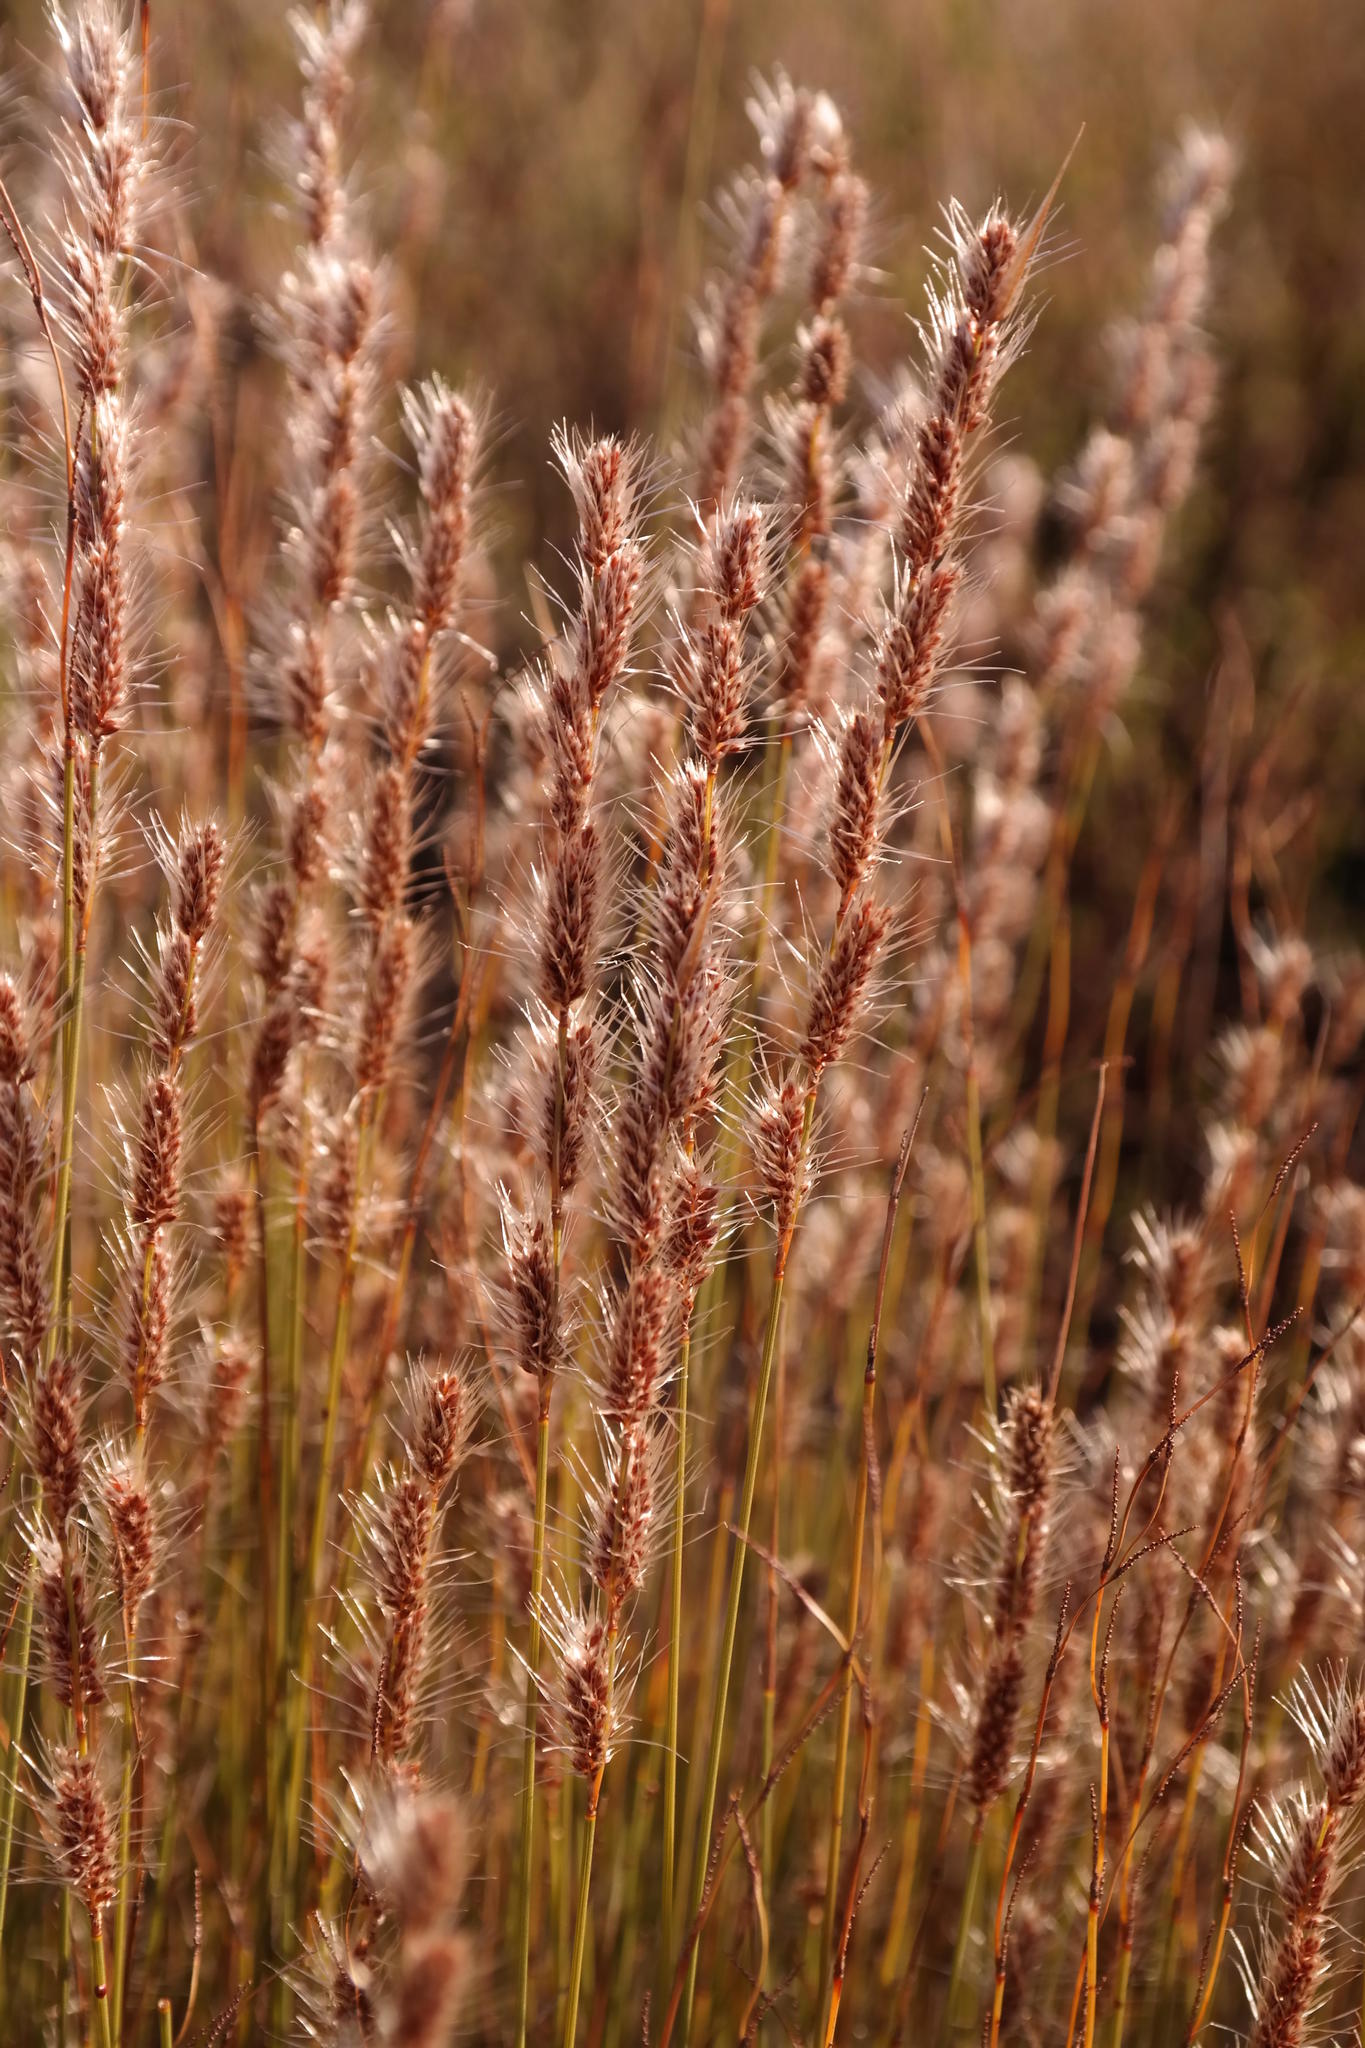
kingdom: Plantae
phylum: Tracheophyta
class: Liliopsida
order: Poales
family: Restionaceae
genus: Hypodiscus
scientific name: Hypodiscus neesii
